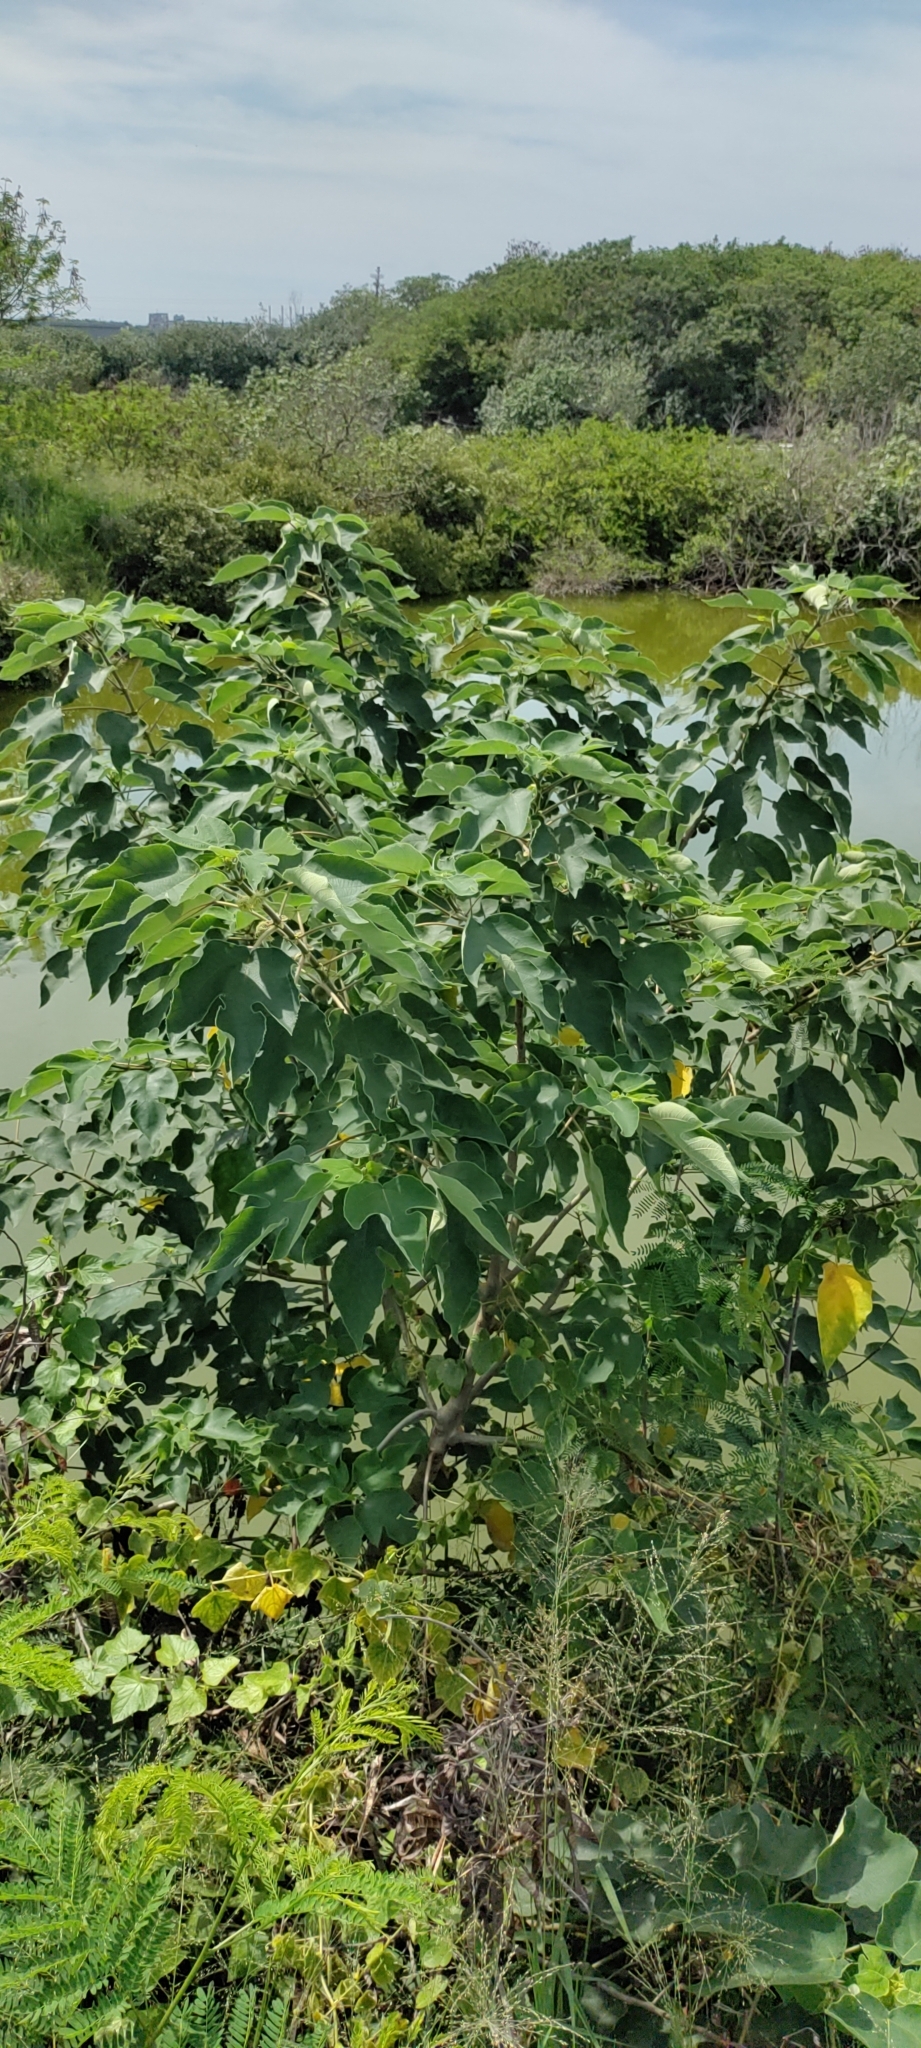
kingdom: Plantae
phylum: Tracheophyta
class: Magnoliopsida
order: Rosales
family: Moraceae
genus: Broussonetia
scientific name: Broussonetia papyrifera
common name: Paper mulberry
